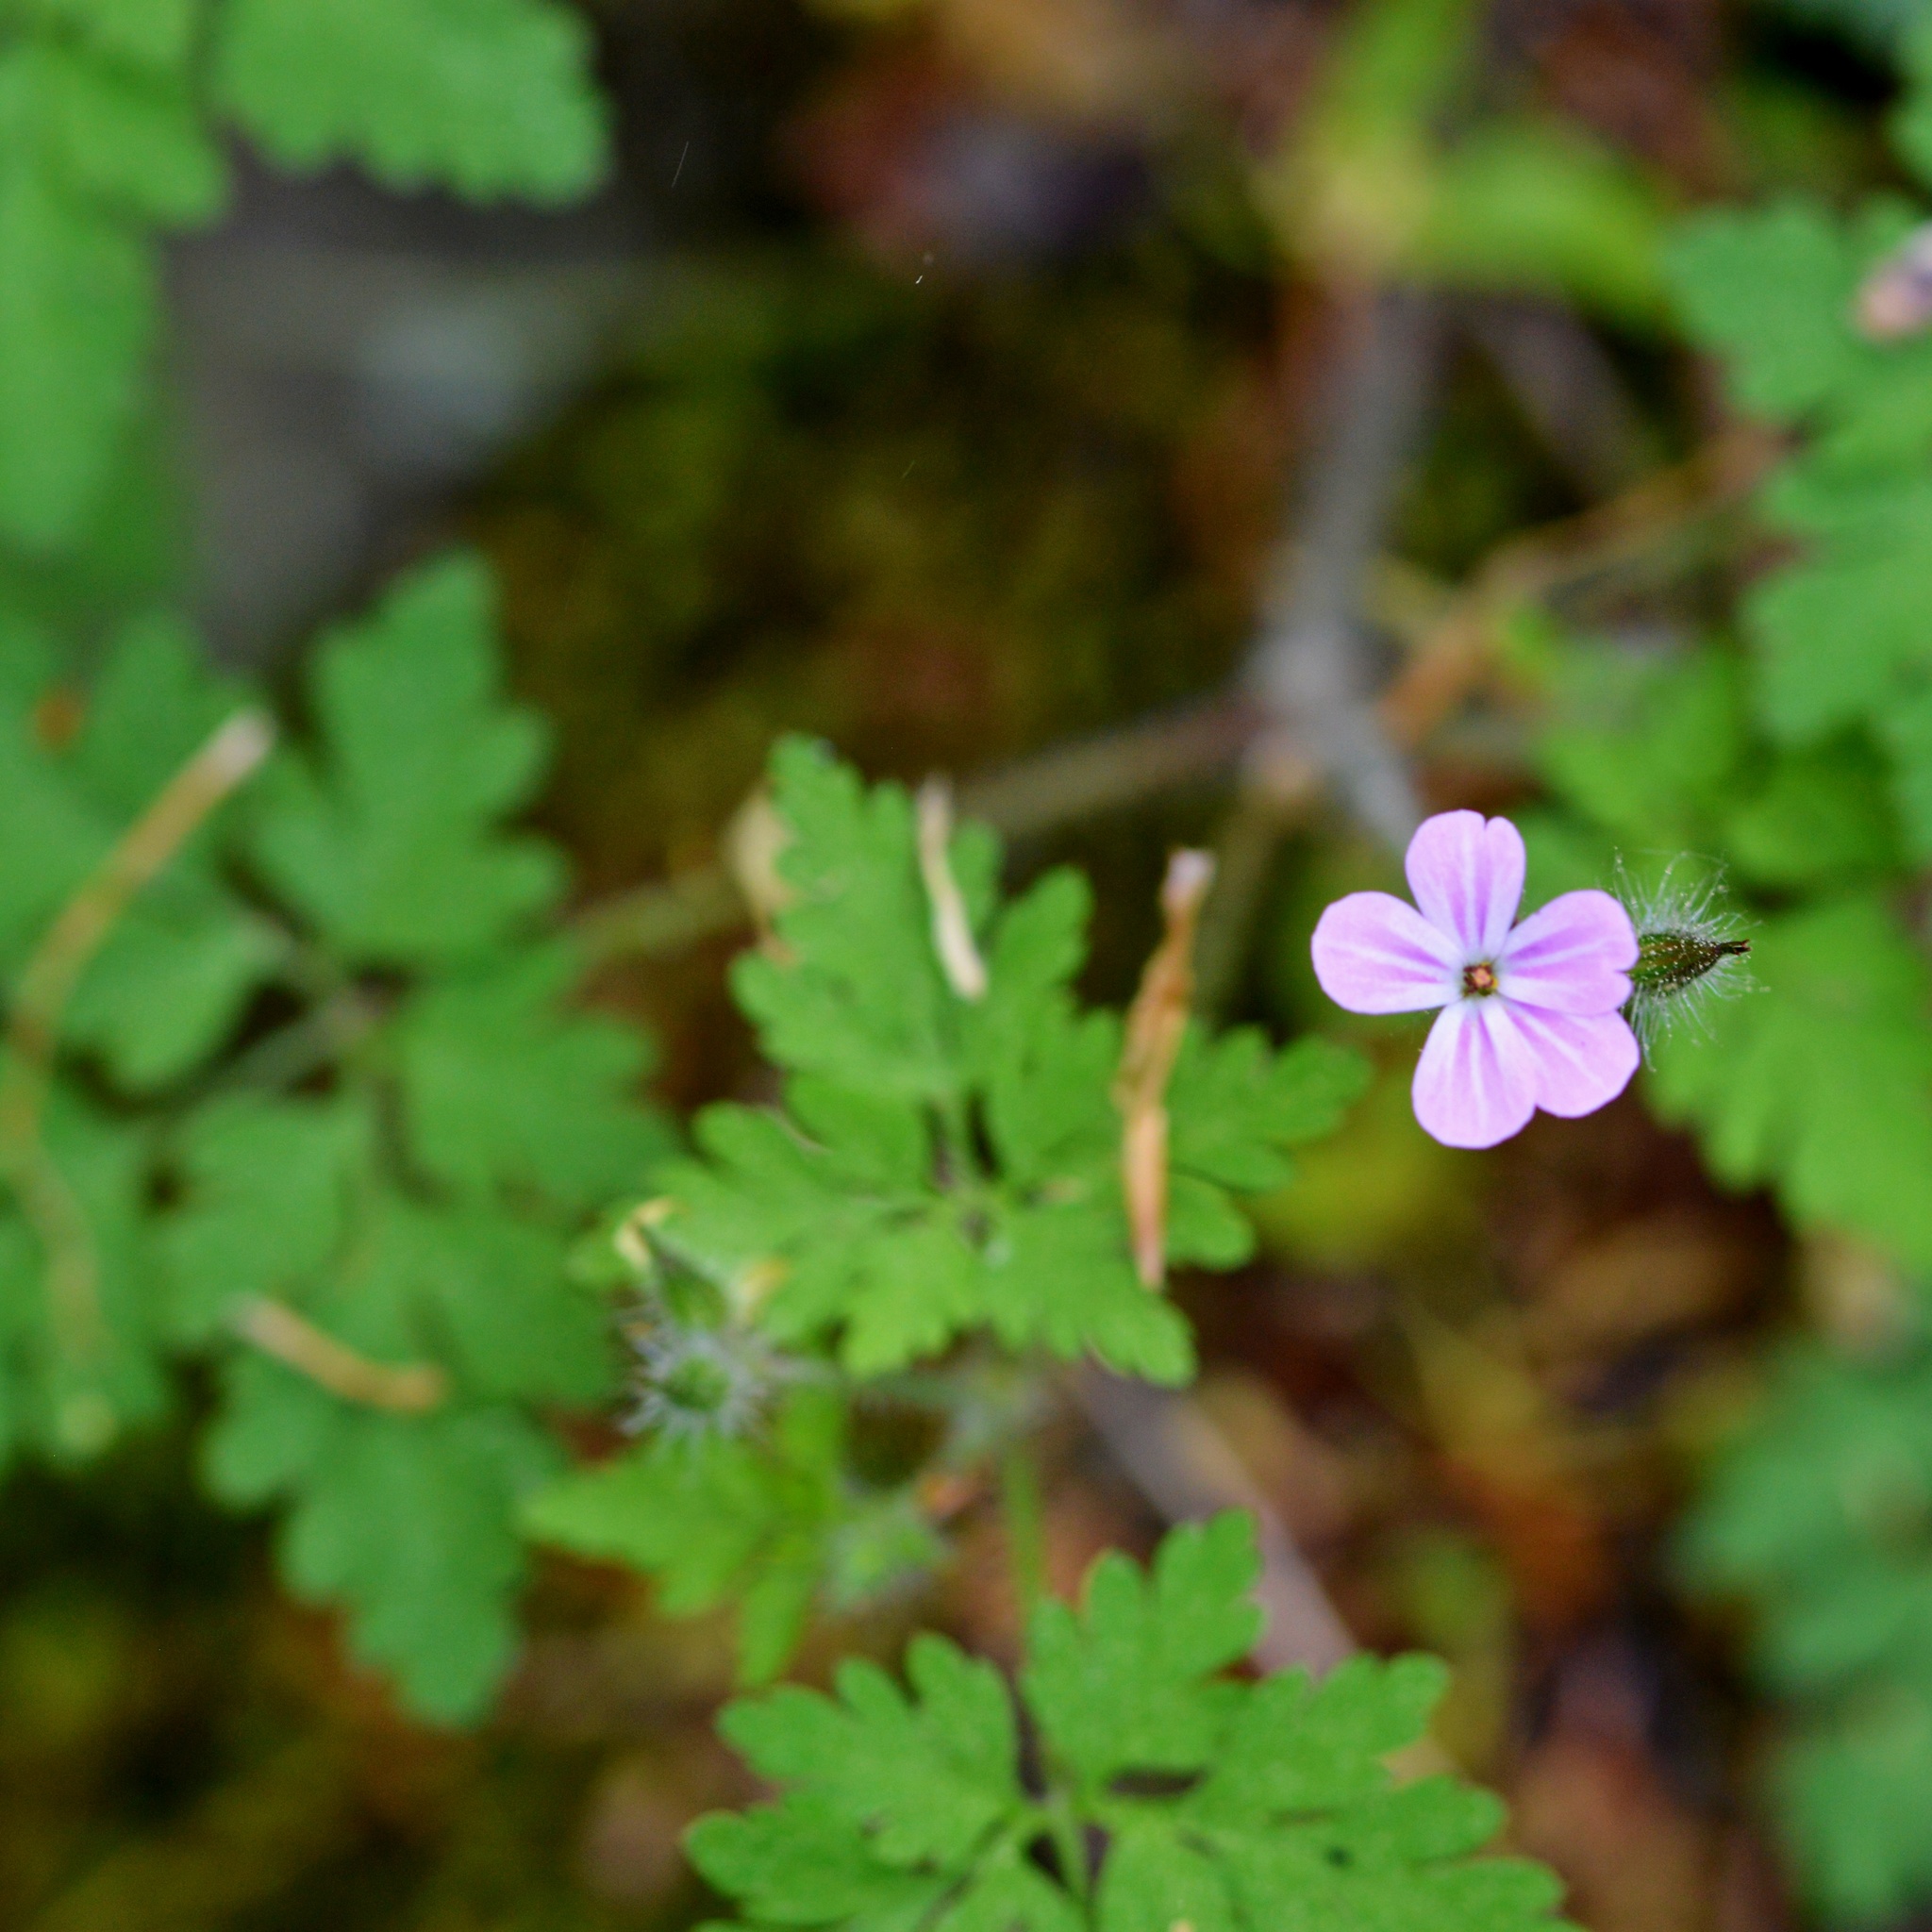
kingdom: Plantae
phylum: Tracheophyta
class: Magnoliopsida
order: Geraniales
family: Geraniaceae
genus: Geranium
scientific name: Geranium robertianum
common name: Herb-robert
